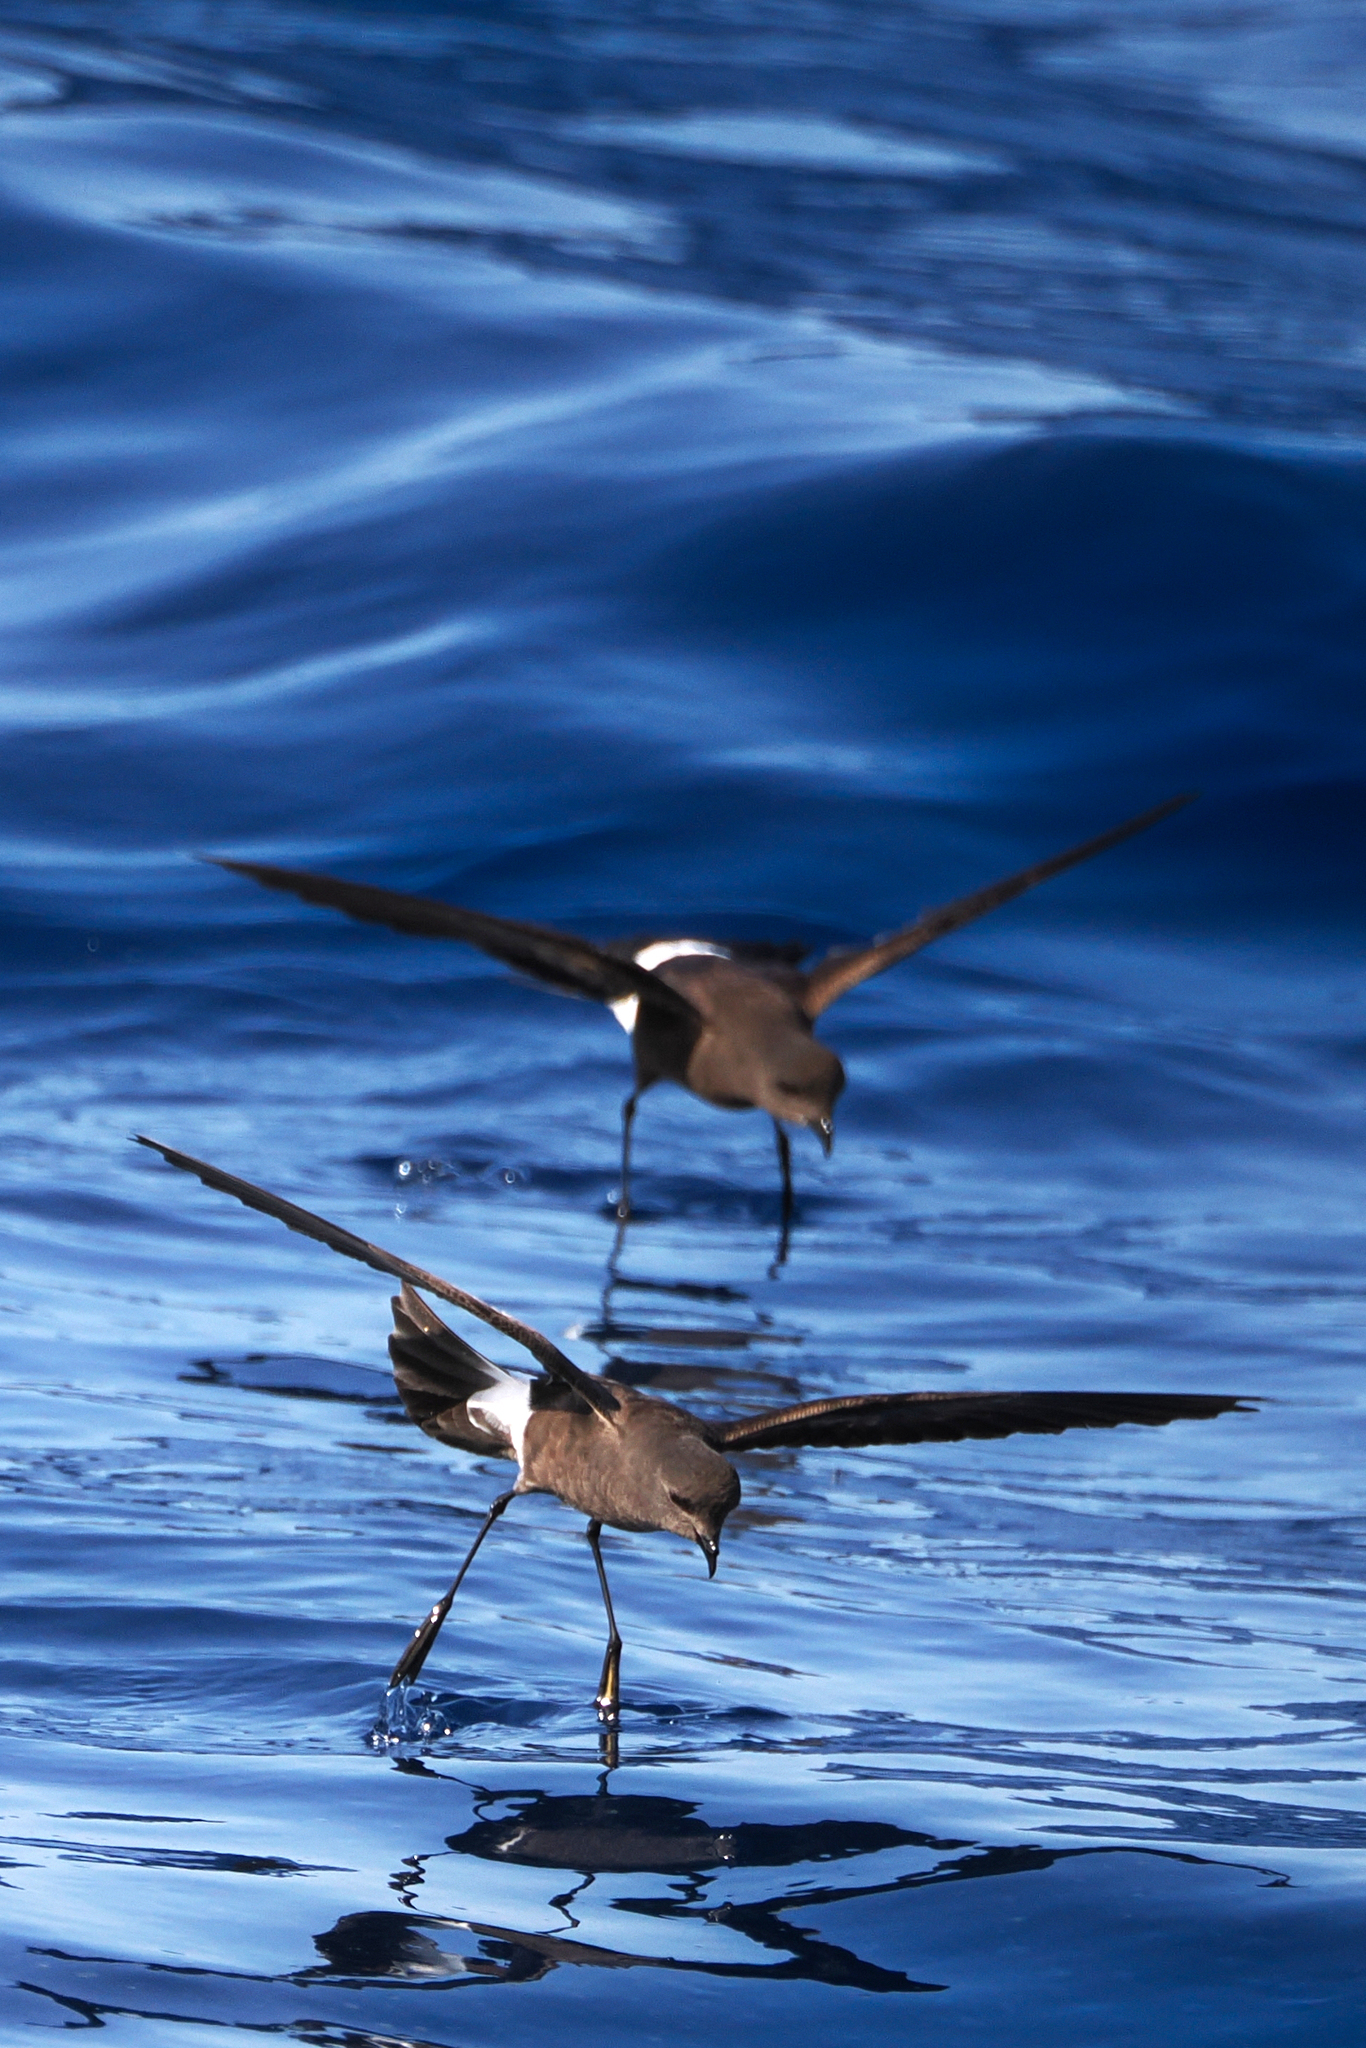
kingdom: Animalia
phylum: Chordata
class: Aves
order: Procellariiformes
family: Hydrobatidae
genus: Oceanites
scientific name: Oceanites oceanicus
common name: Wilson's storm petrel
